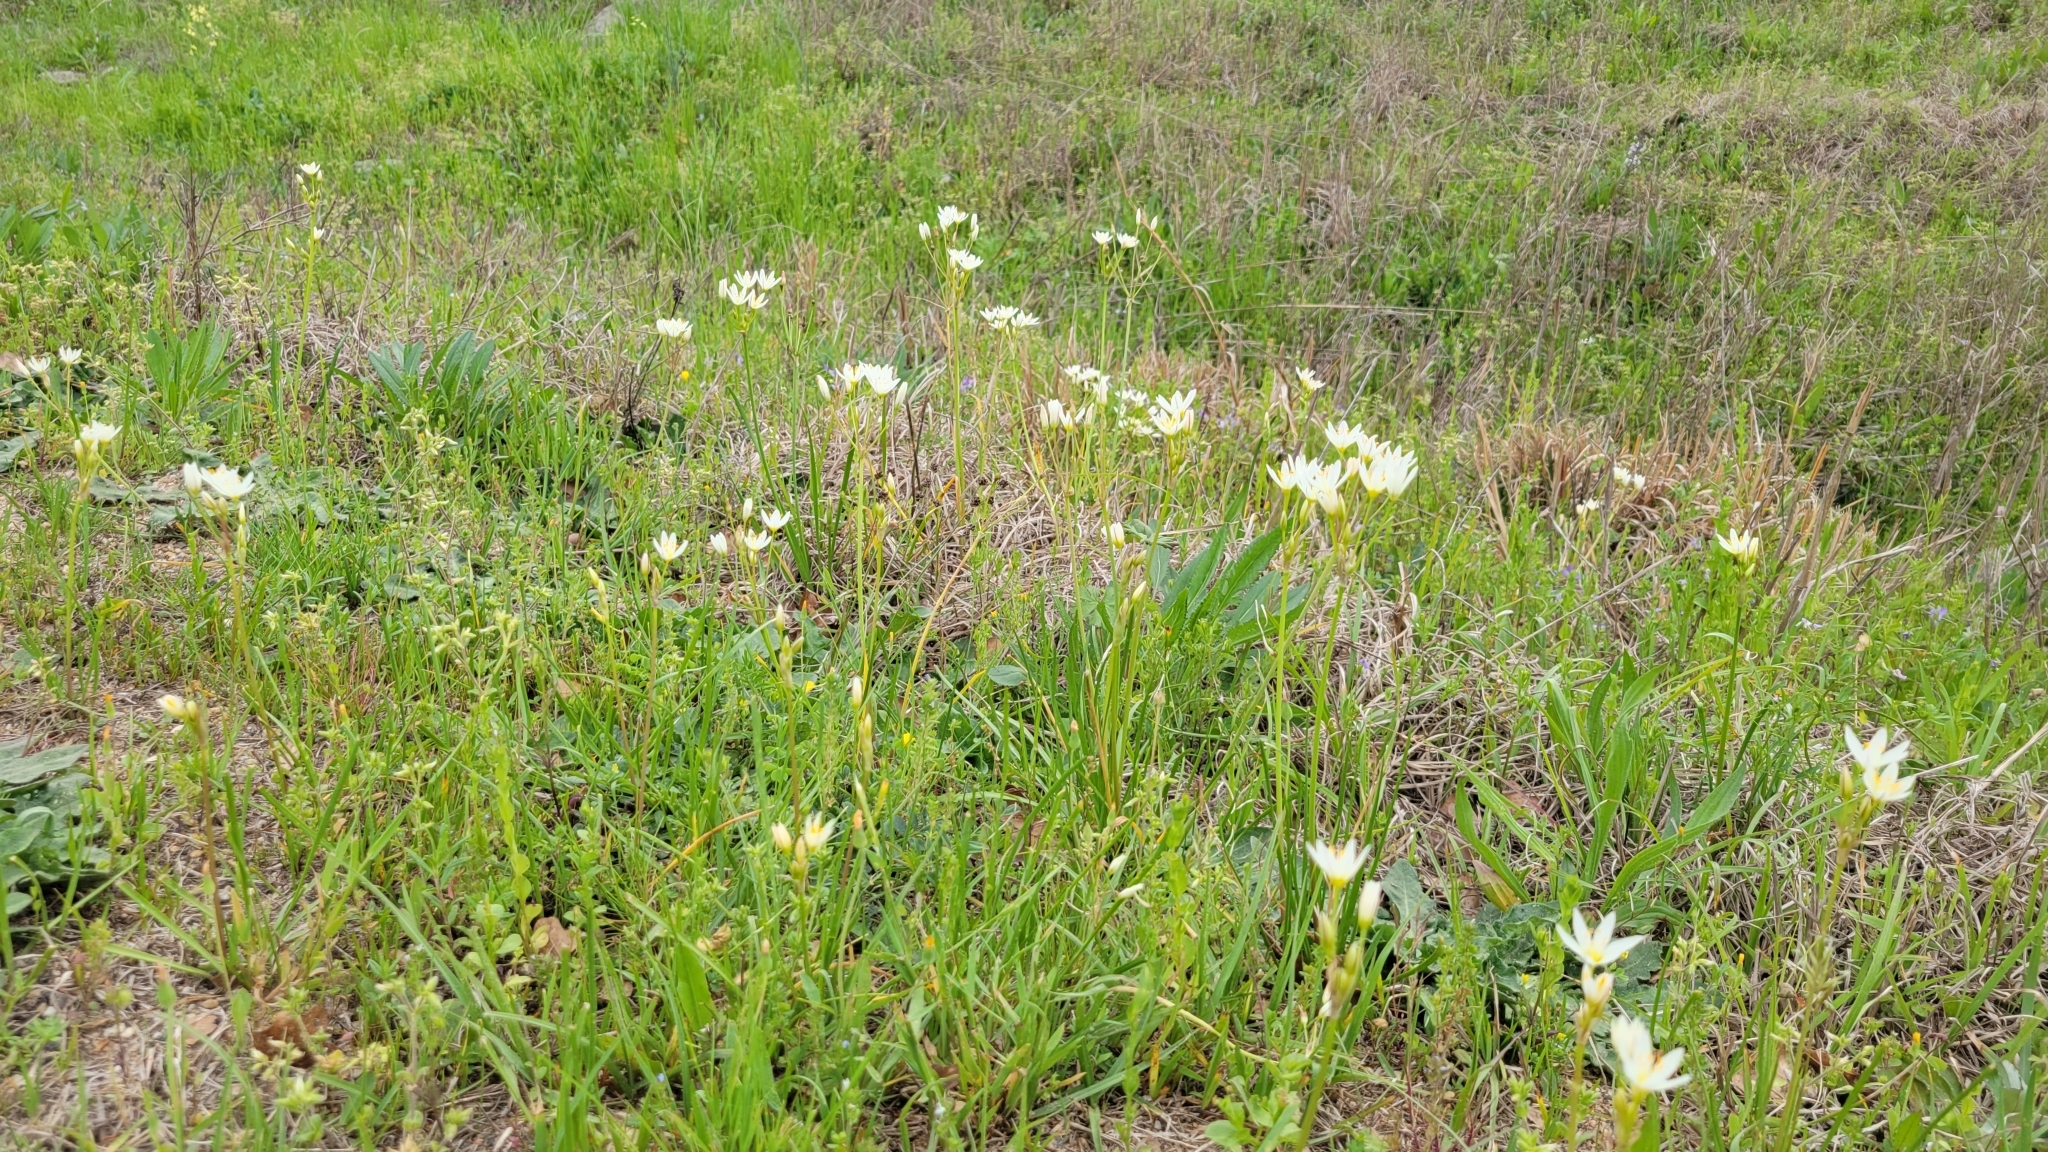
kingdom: Plantae
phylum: Tracheophyta
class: Liliopsida
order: Asparagales
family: Amaryllidaceae
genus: Nothoscordum
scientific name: Nothoscordum bivalve
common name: Crow-poison
